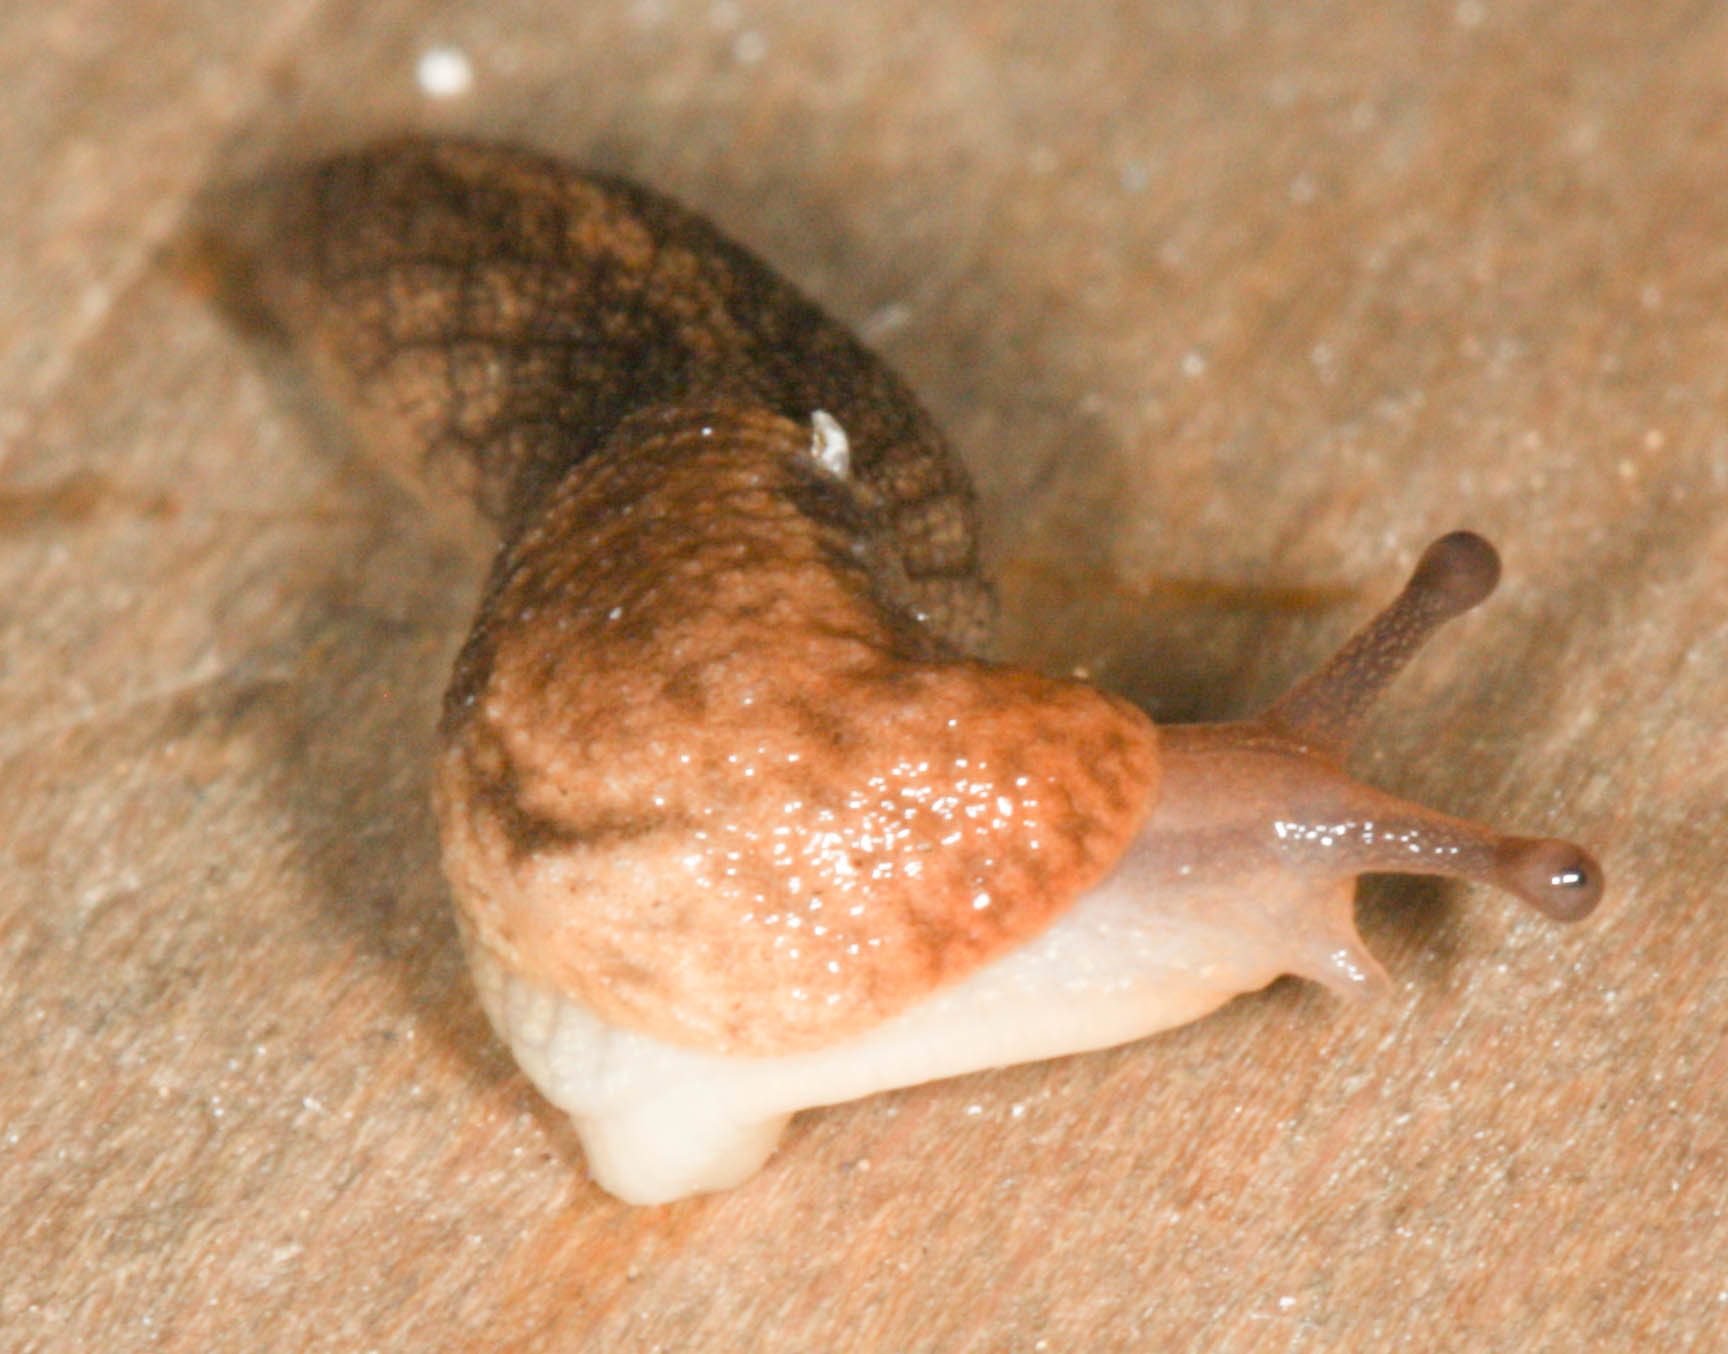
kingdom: Animalia
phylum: Mollusca
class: Gastropoda
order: Stylommatophora
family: Ariolimacidae
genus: Prophysaon
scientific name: Prophysaon andersonii
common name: Reticulate taildropper
